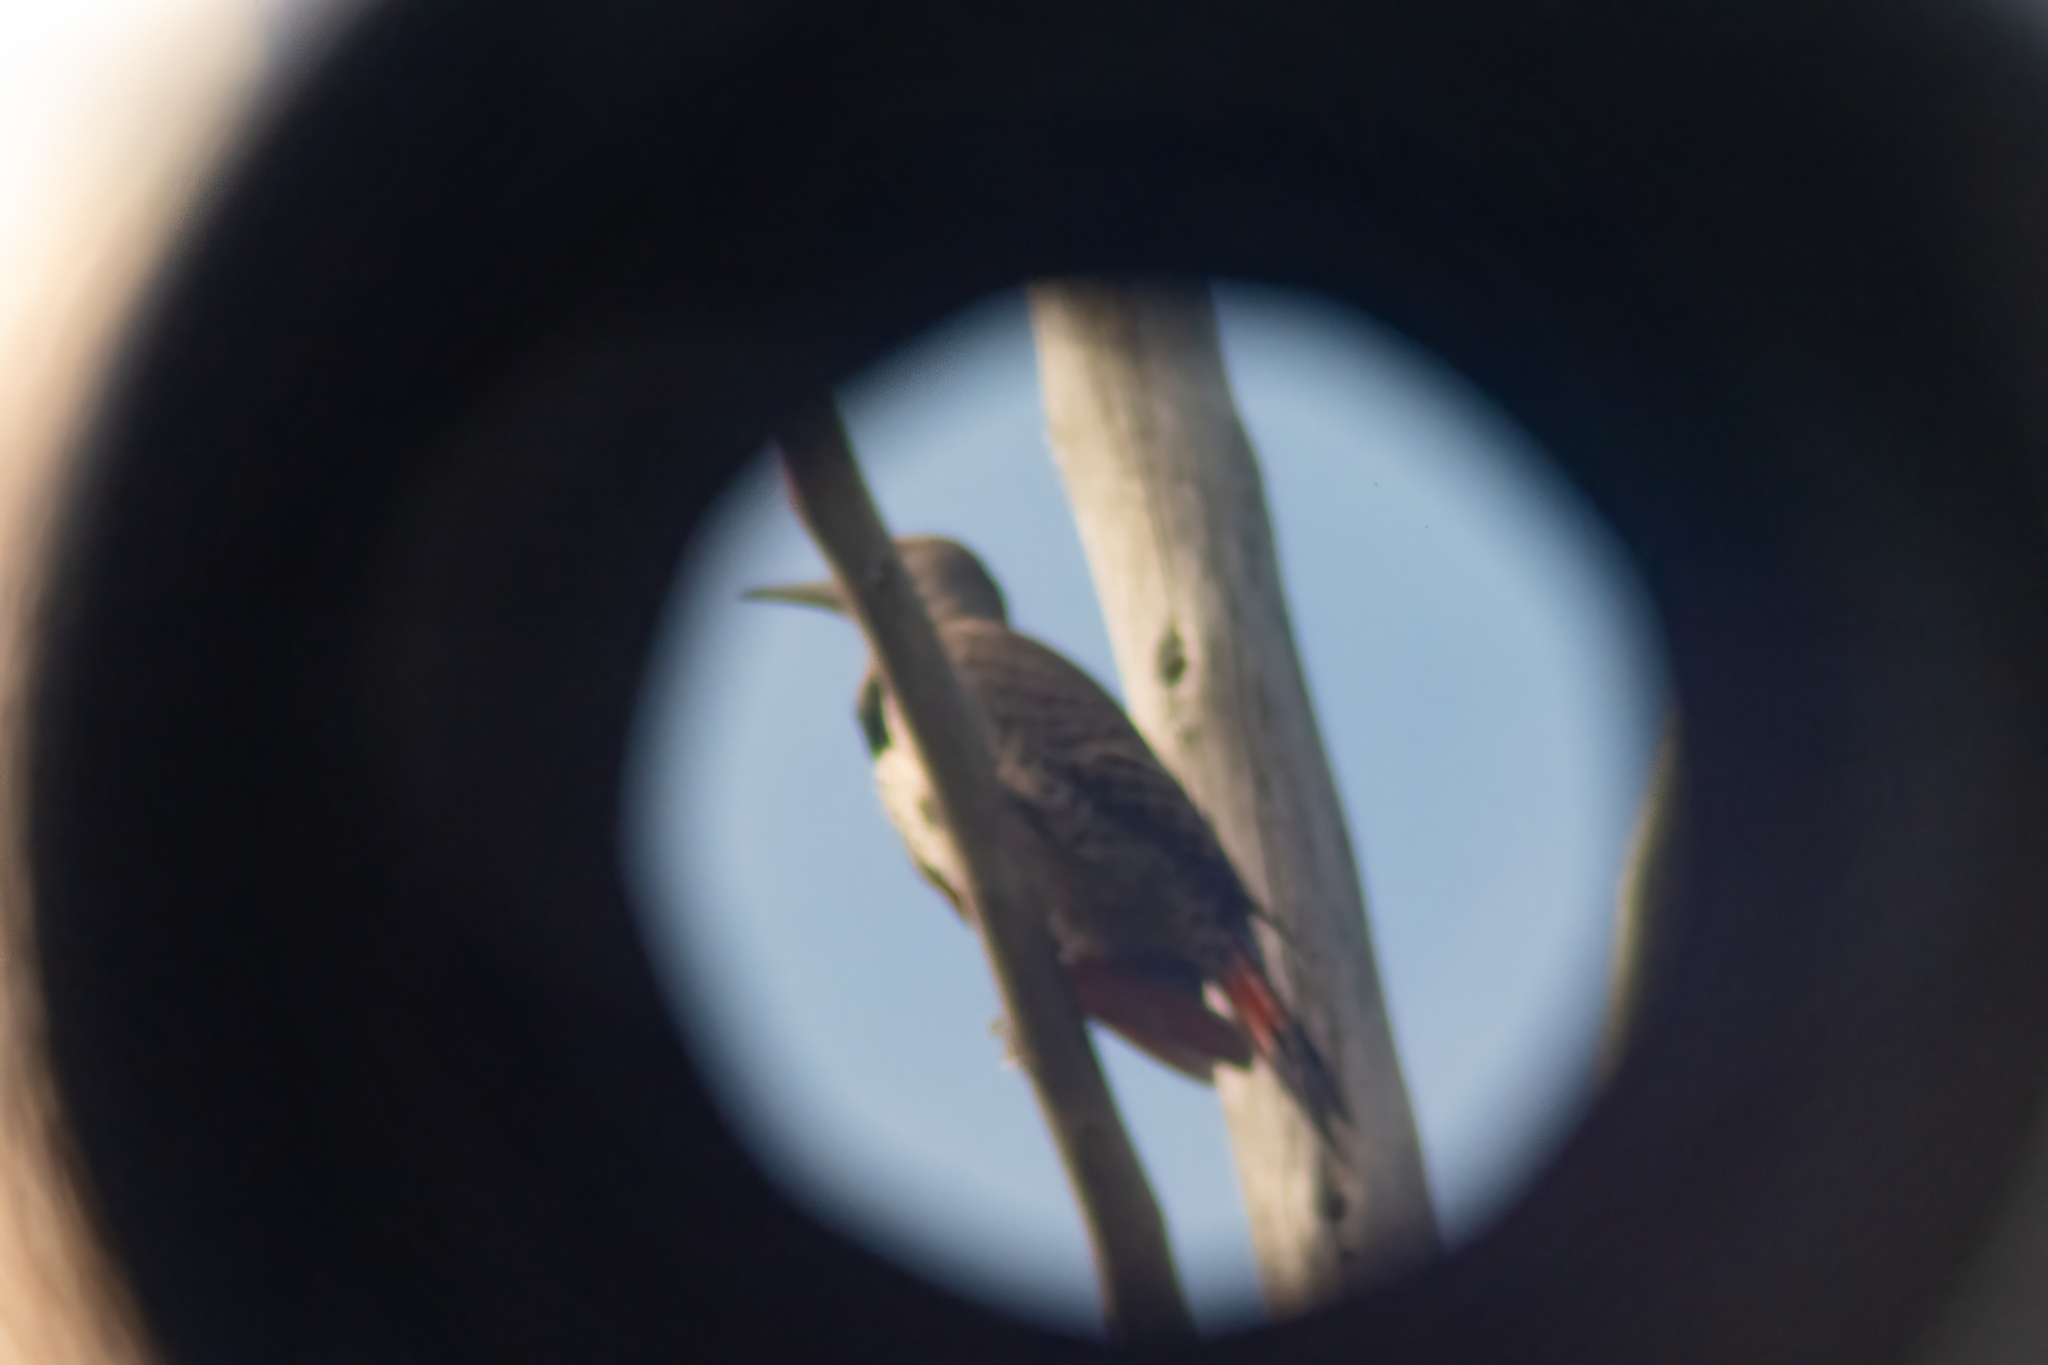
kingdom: Animalia
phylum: Chordata
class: Aves
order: Piciformes
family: Picidae
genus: Colaptes
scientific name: Colaptes auratus
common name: Northern flicker
